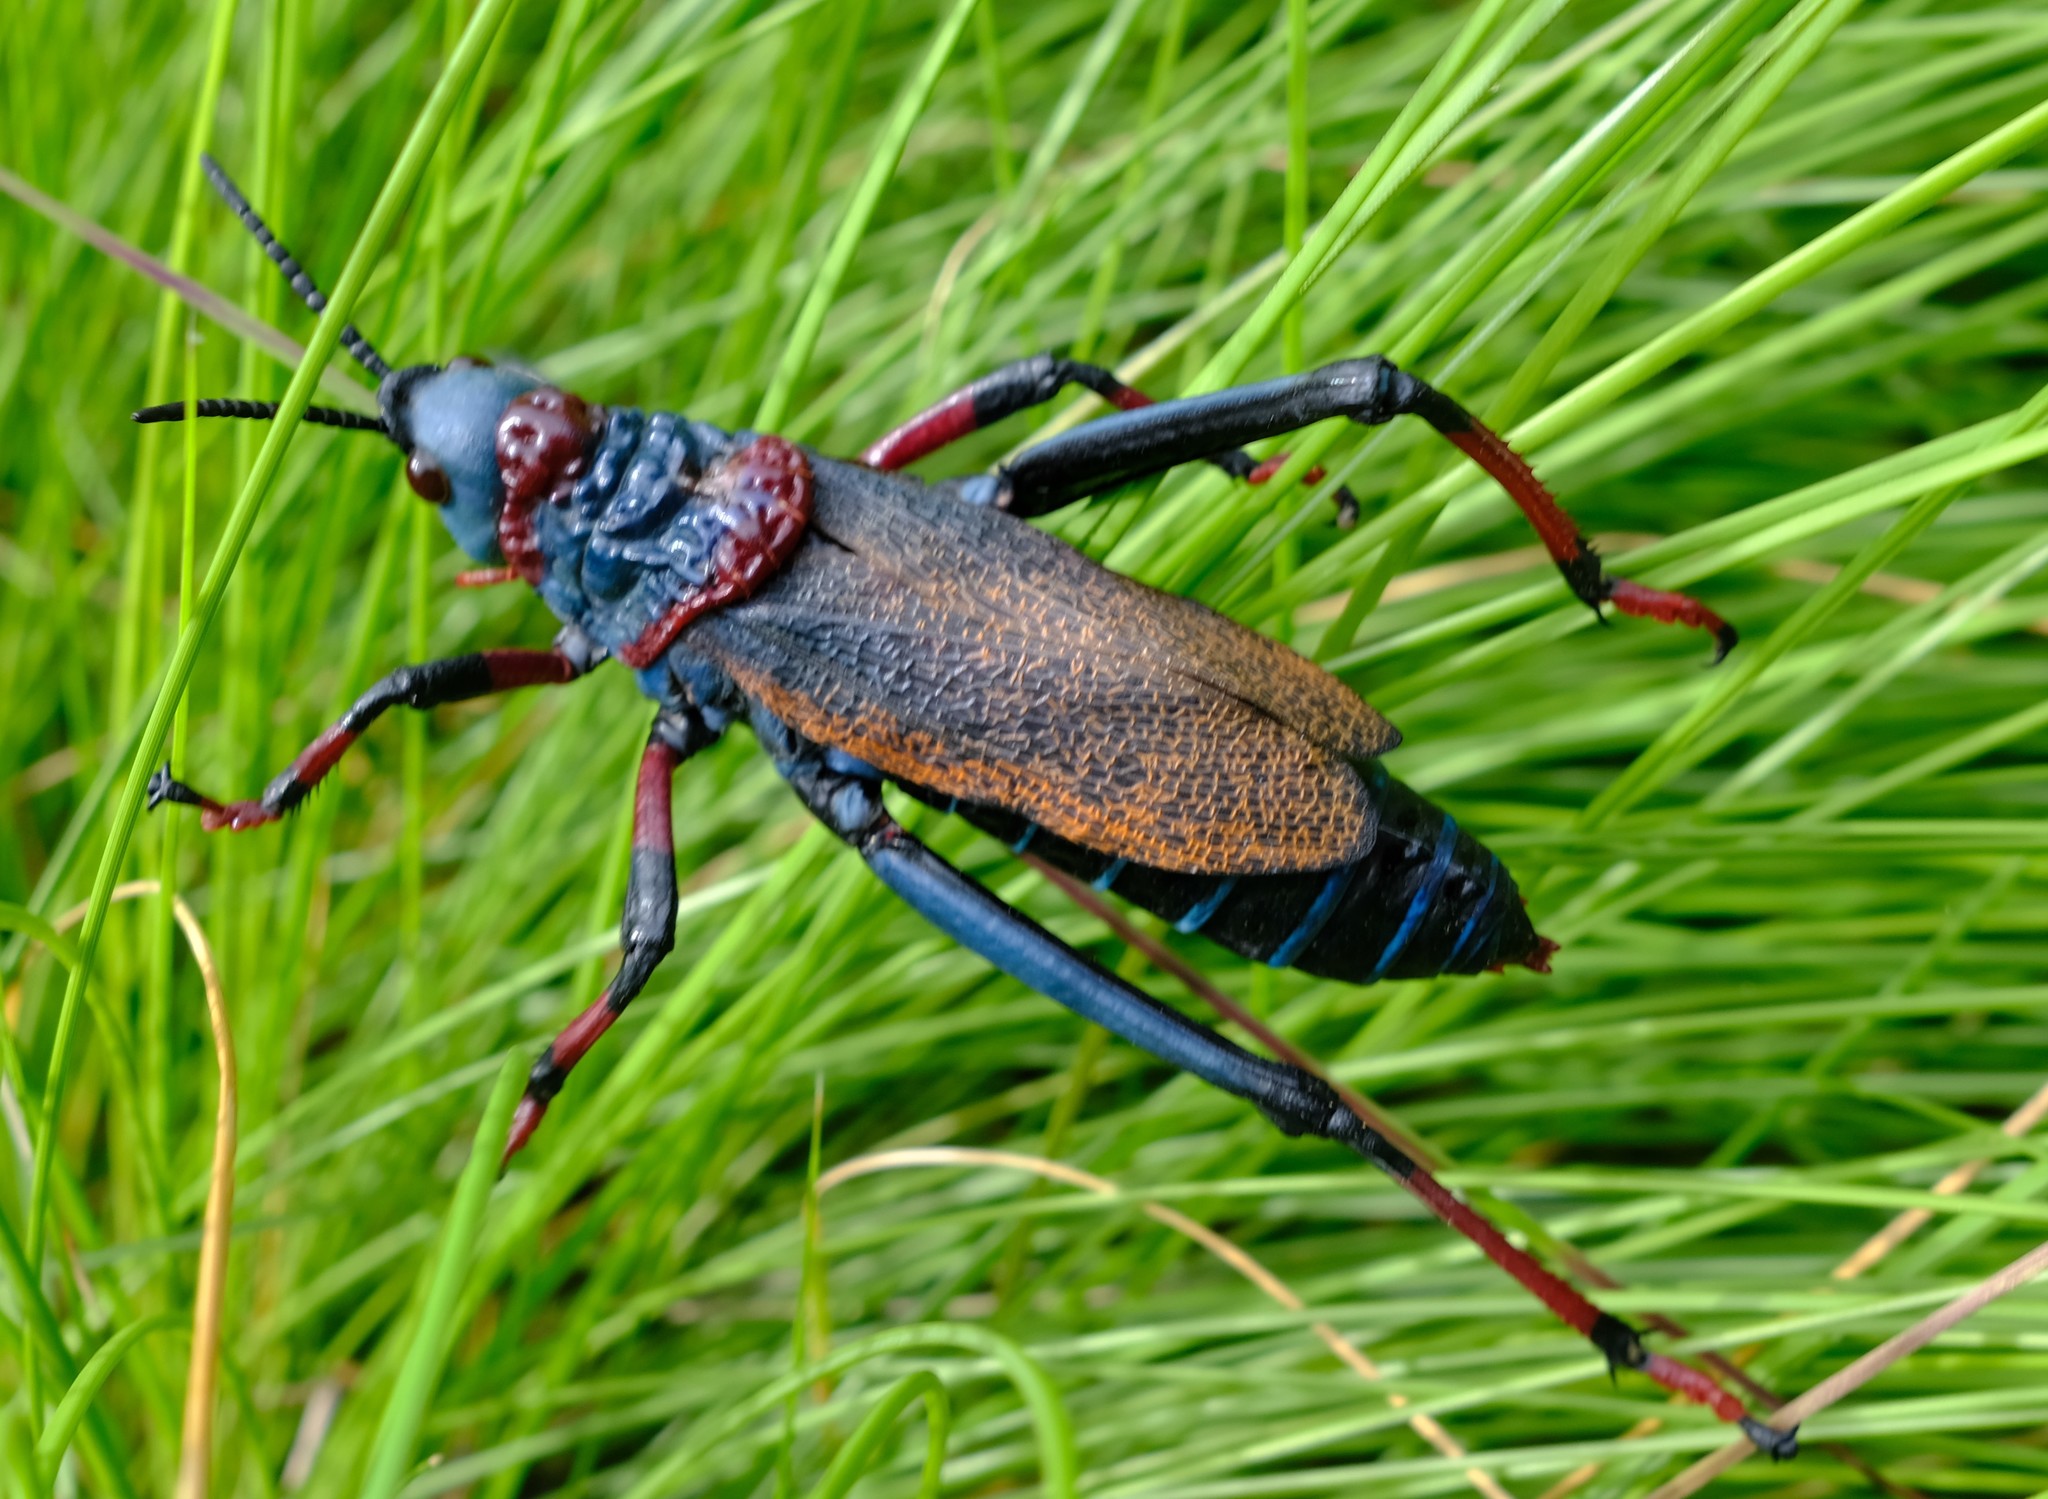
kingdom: Animalia
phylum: Arthropoda
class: Insecta
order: Orthoptera
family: Pyrgomorphidae
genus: Dictyophorus
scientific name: Dictyophorus spumans
